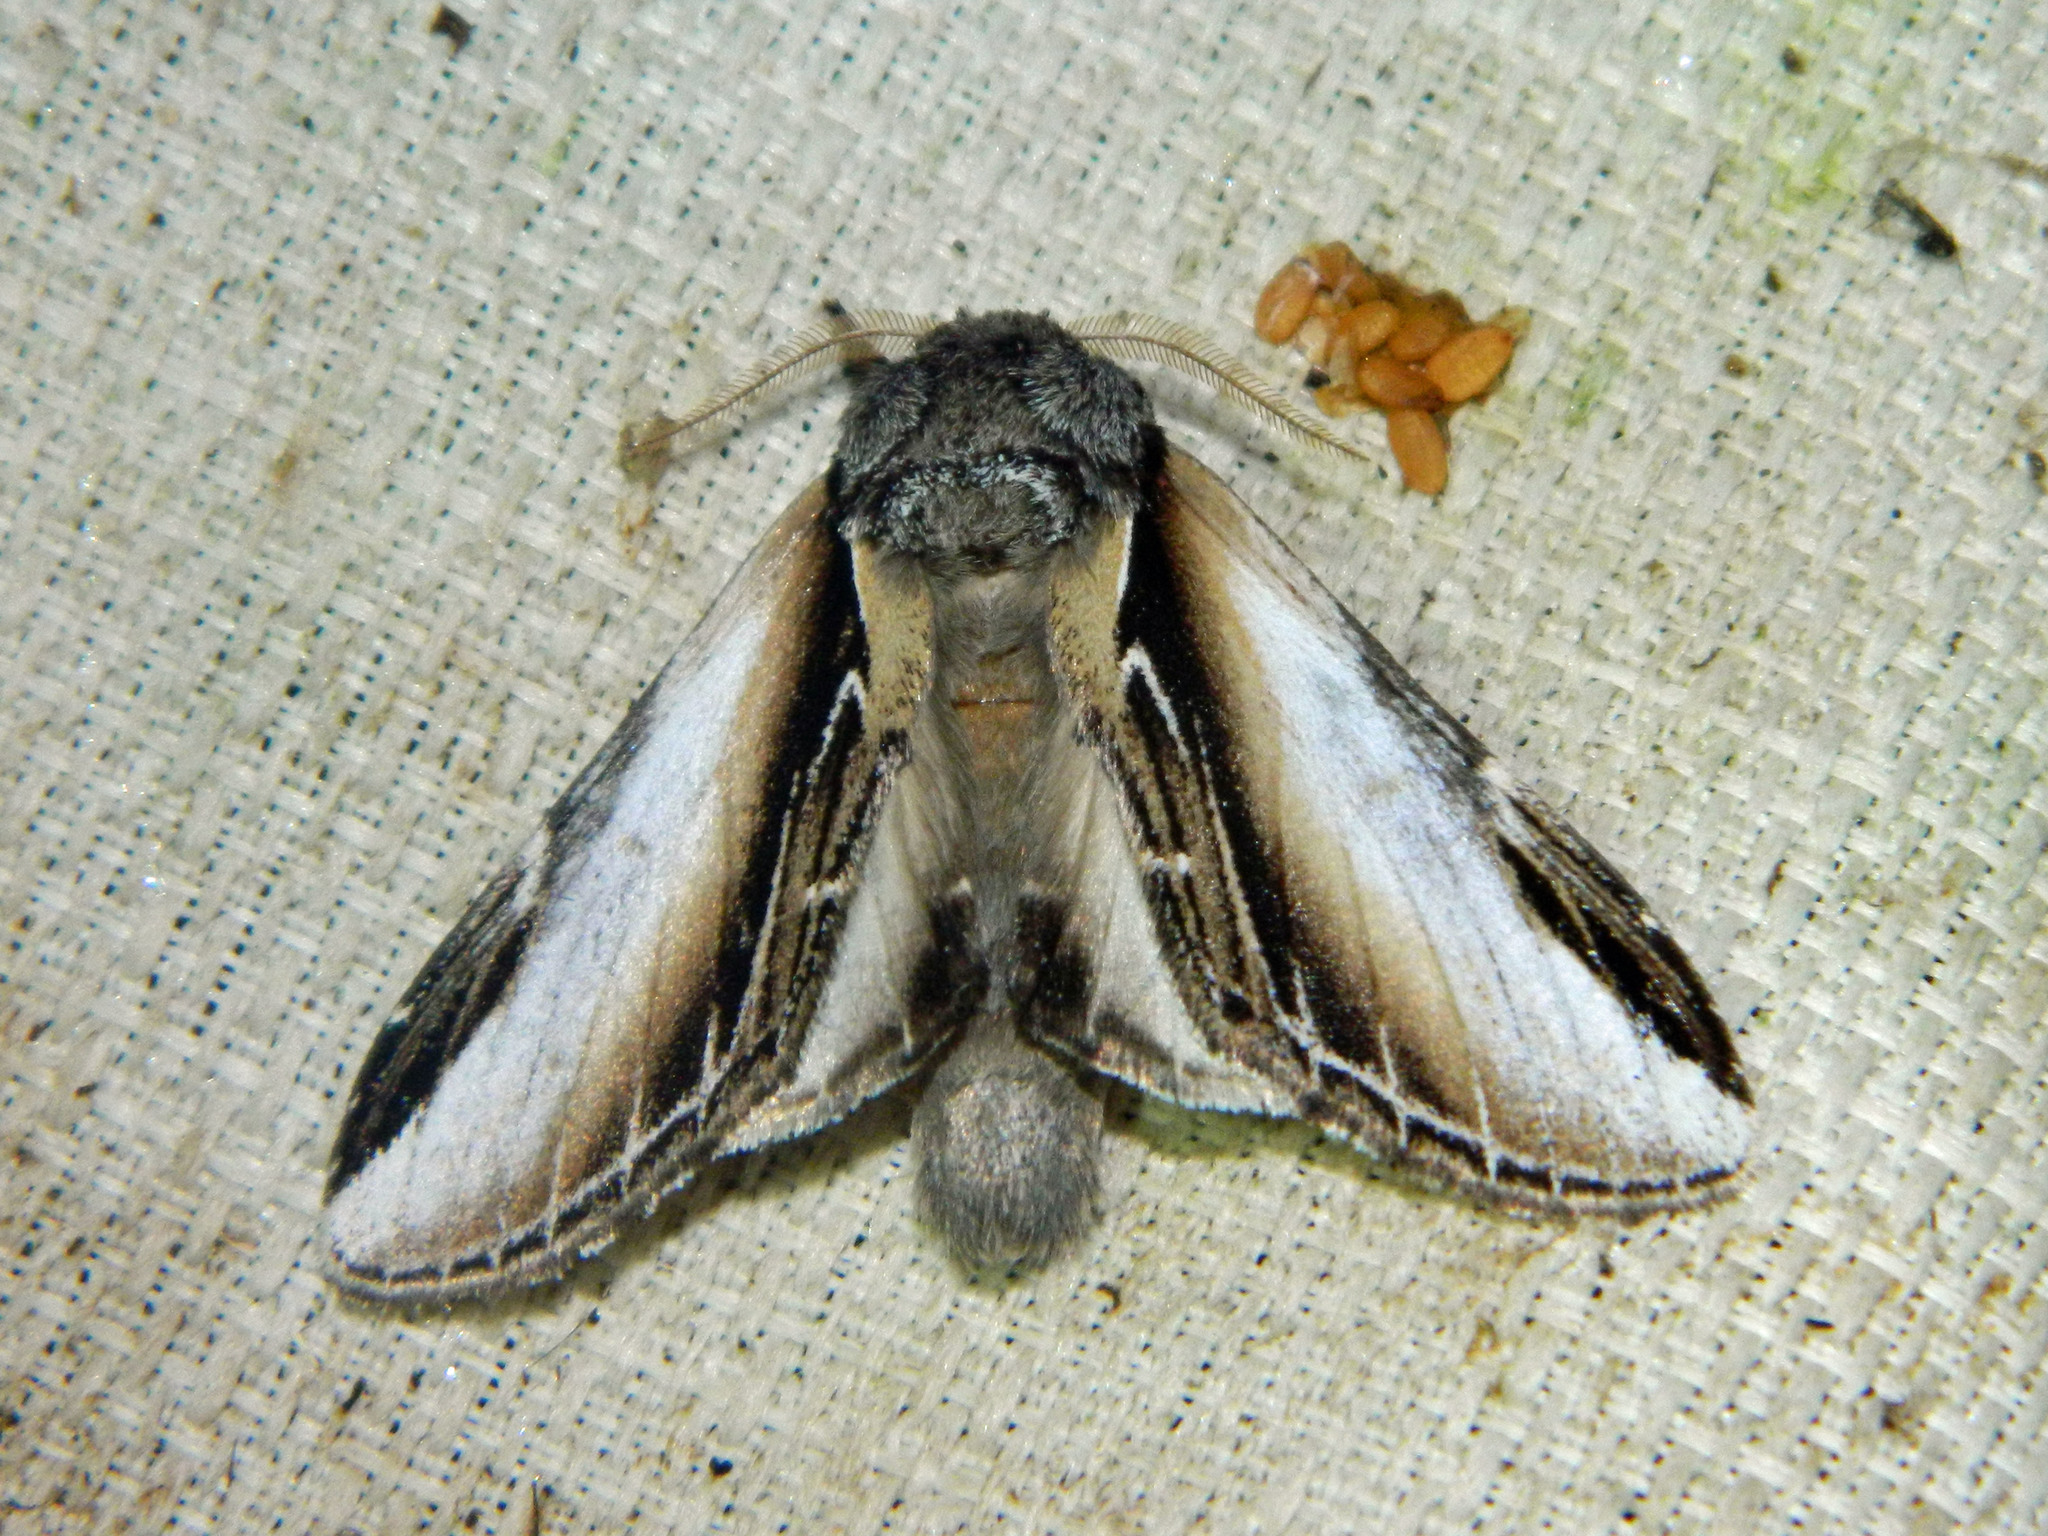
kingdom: Animalia
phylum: Arthropoda
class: Insecta
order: Lepidoptera
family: Notodontidae
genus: Pheosia
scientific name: Pheosia rimosa
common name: Black-rimmed prominent
